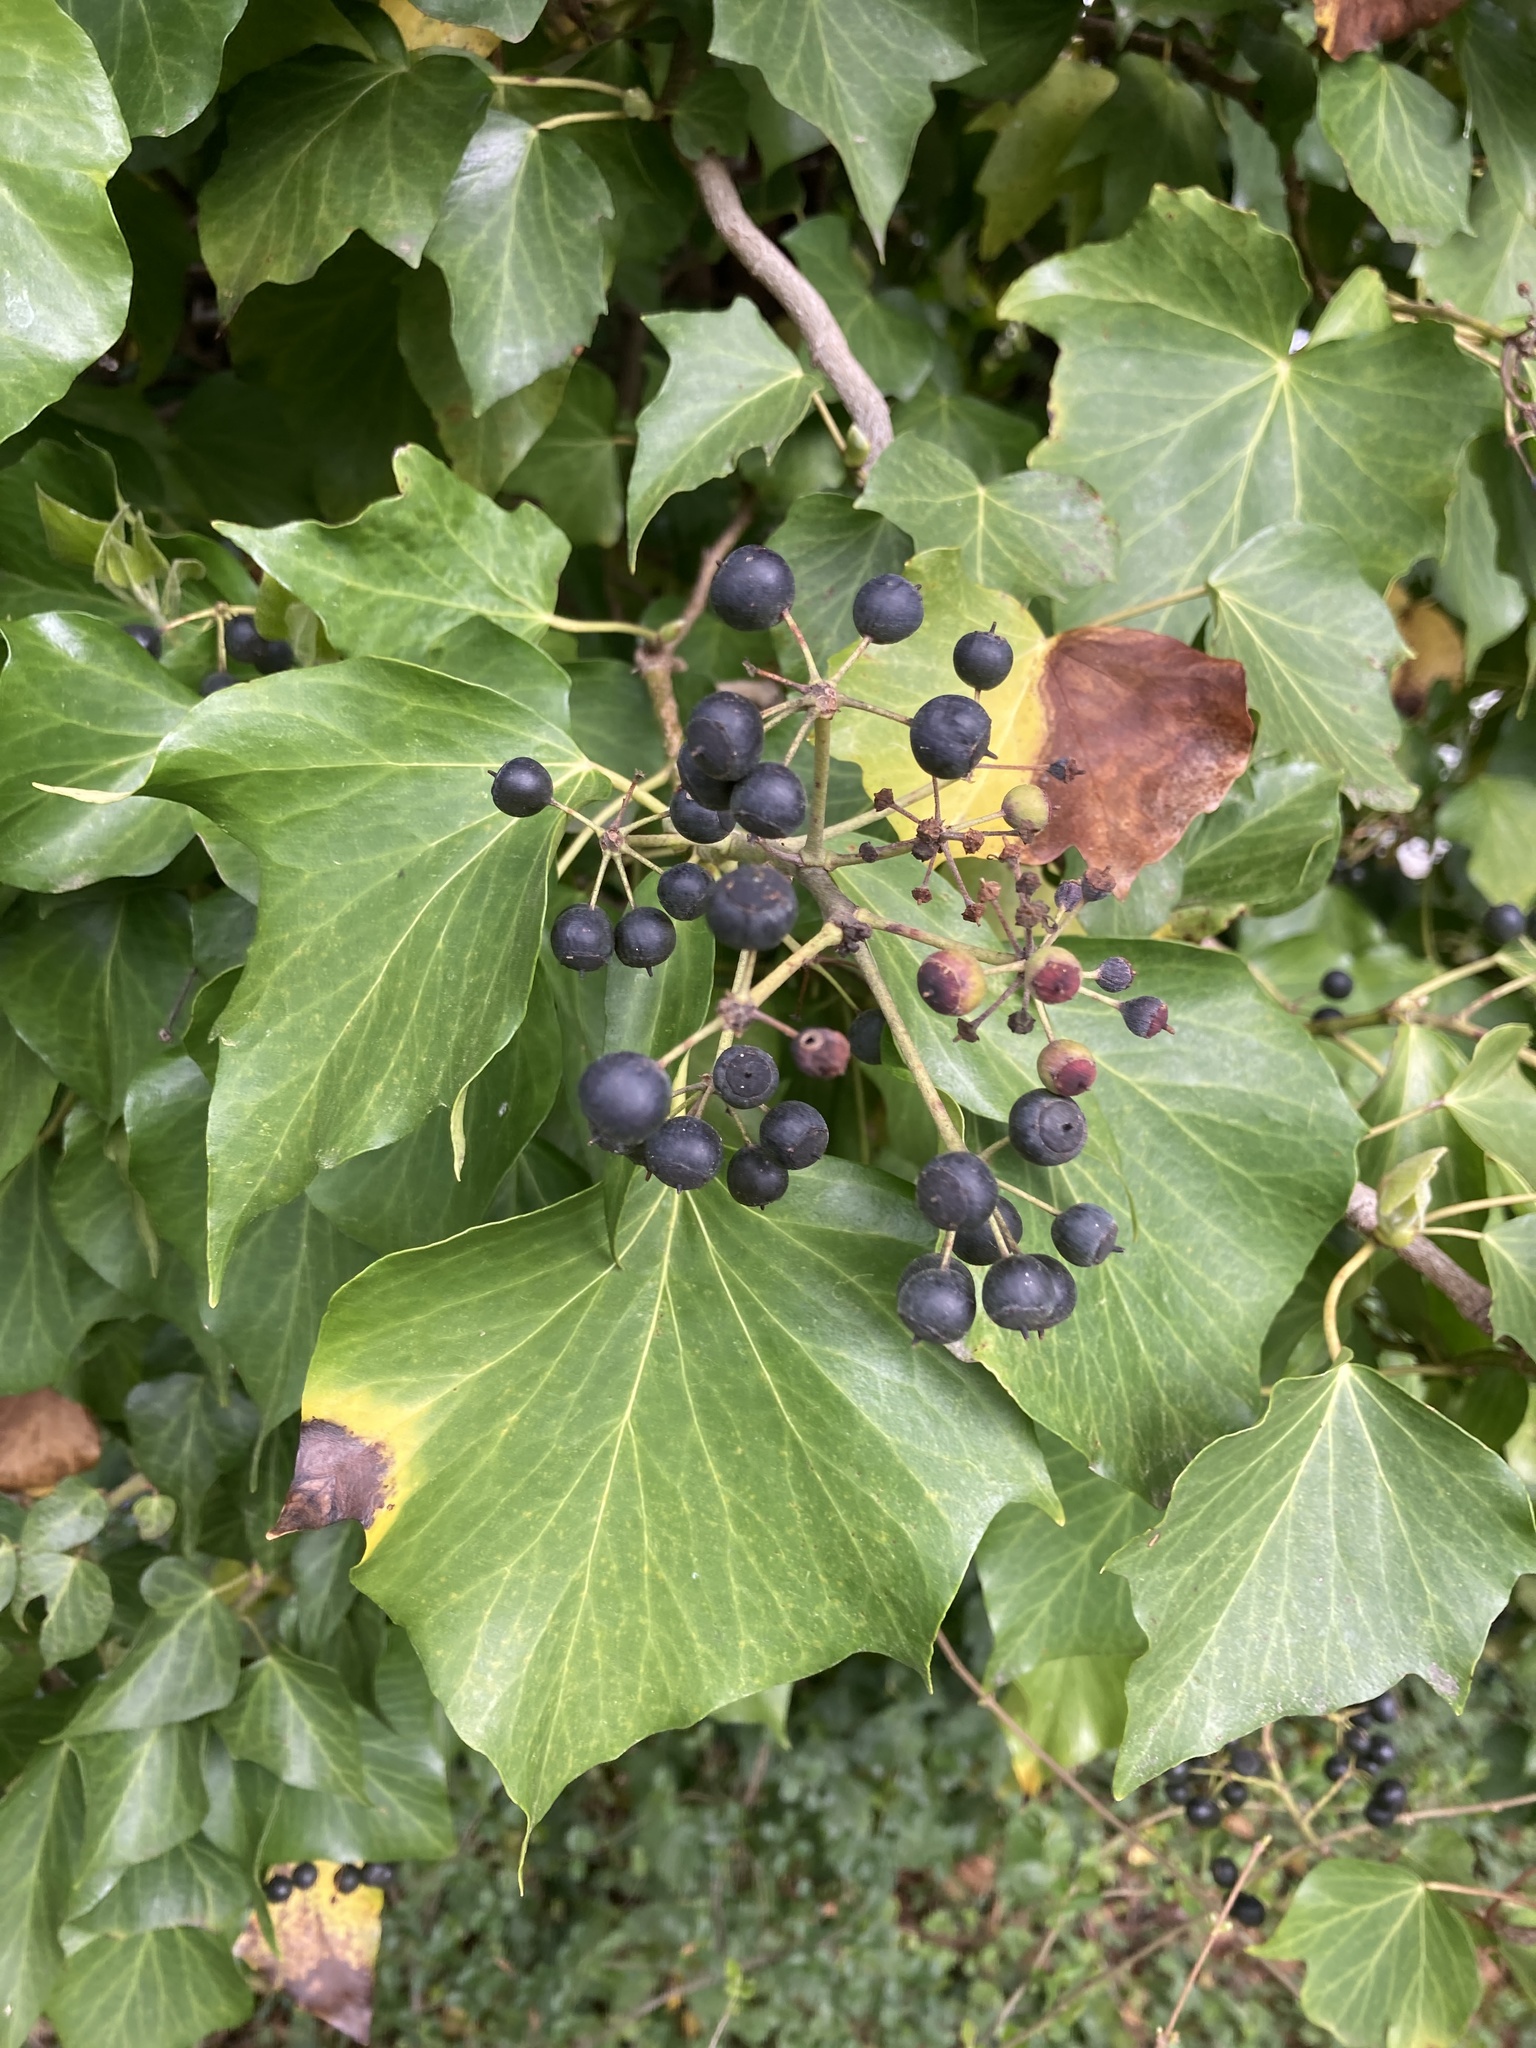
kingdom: Plantae
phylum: Tracheophyta
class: Magnoliopsida
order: Apiales
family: Araliaceae
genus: Hedera
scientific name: Hedera helix
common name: Ivy
